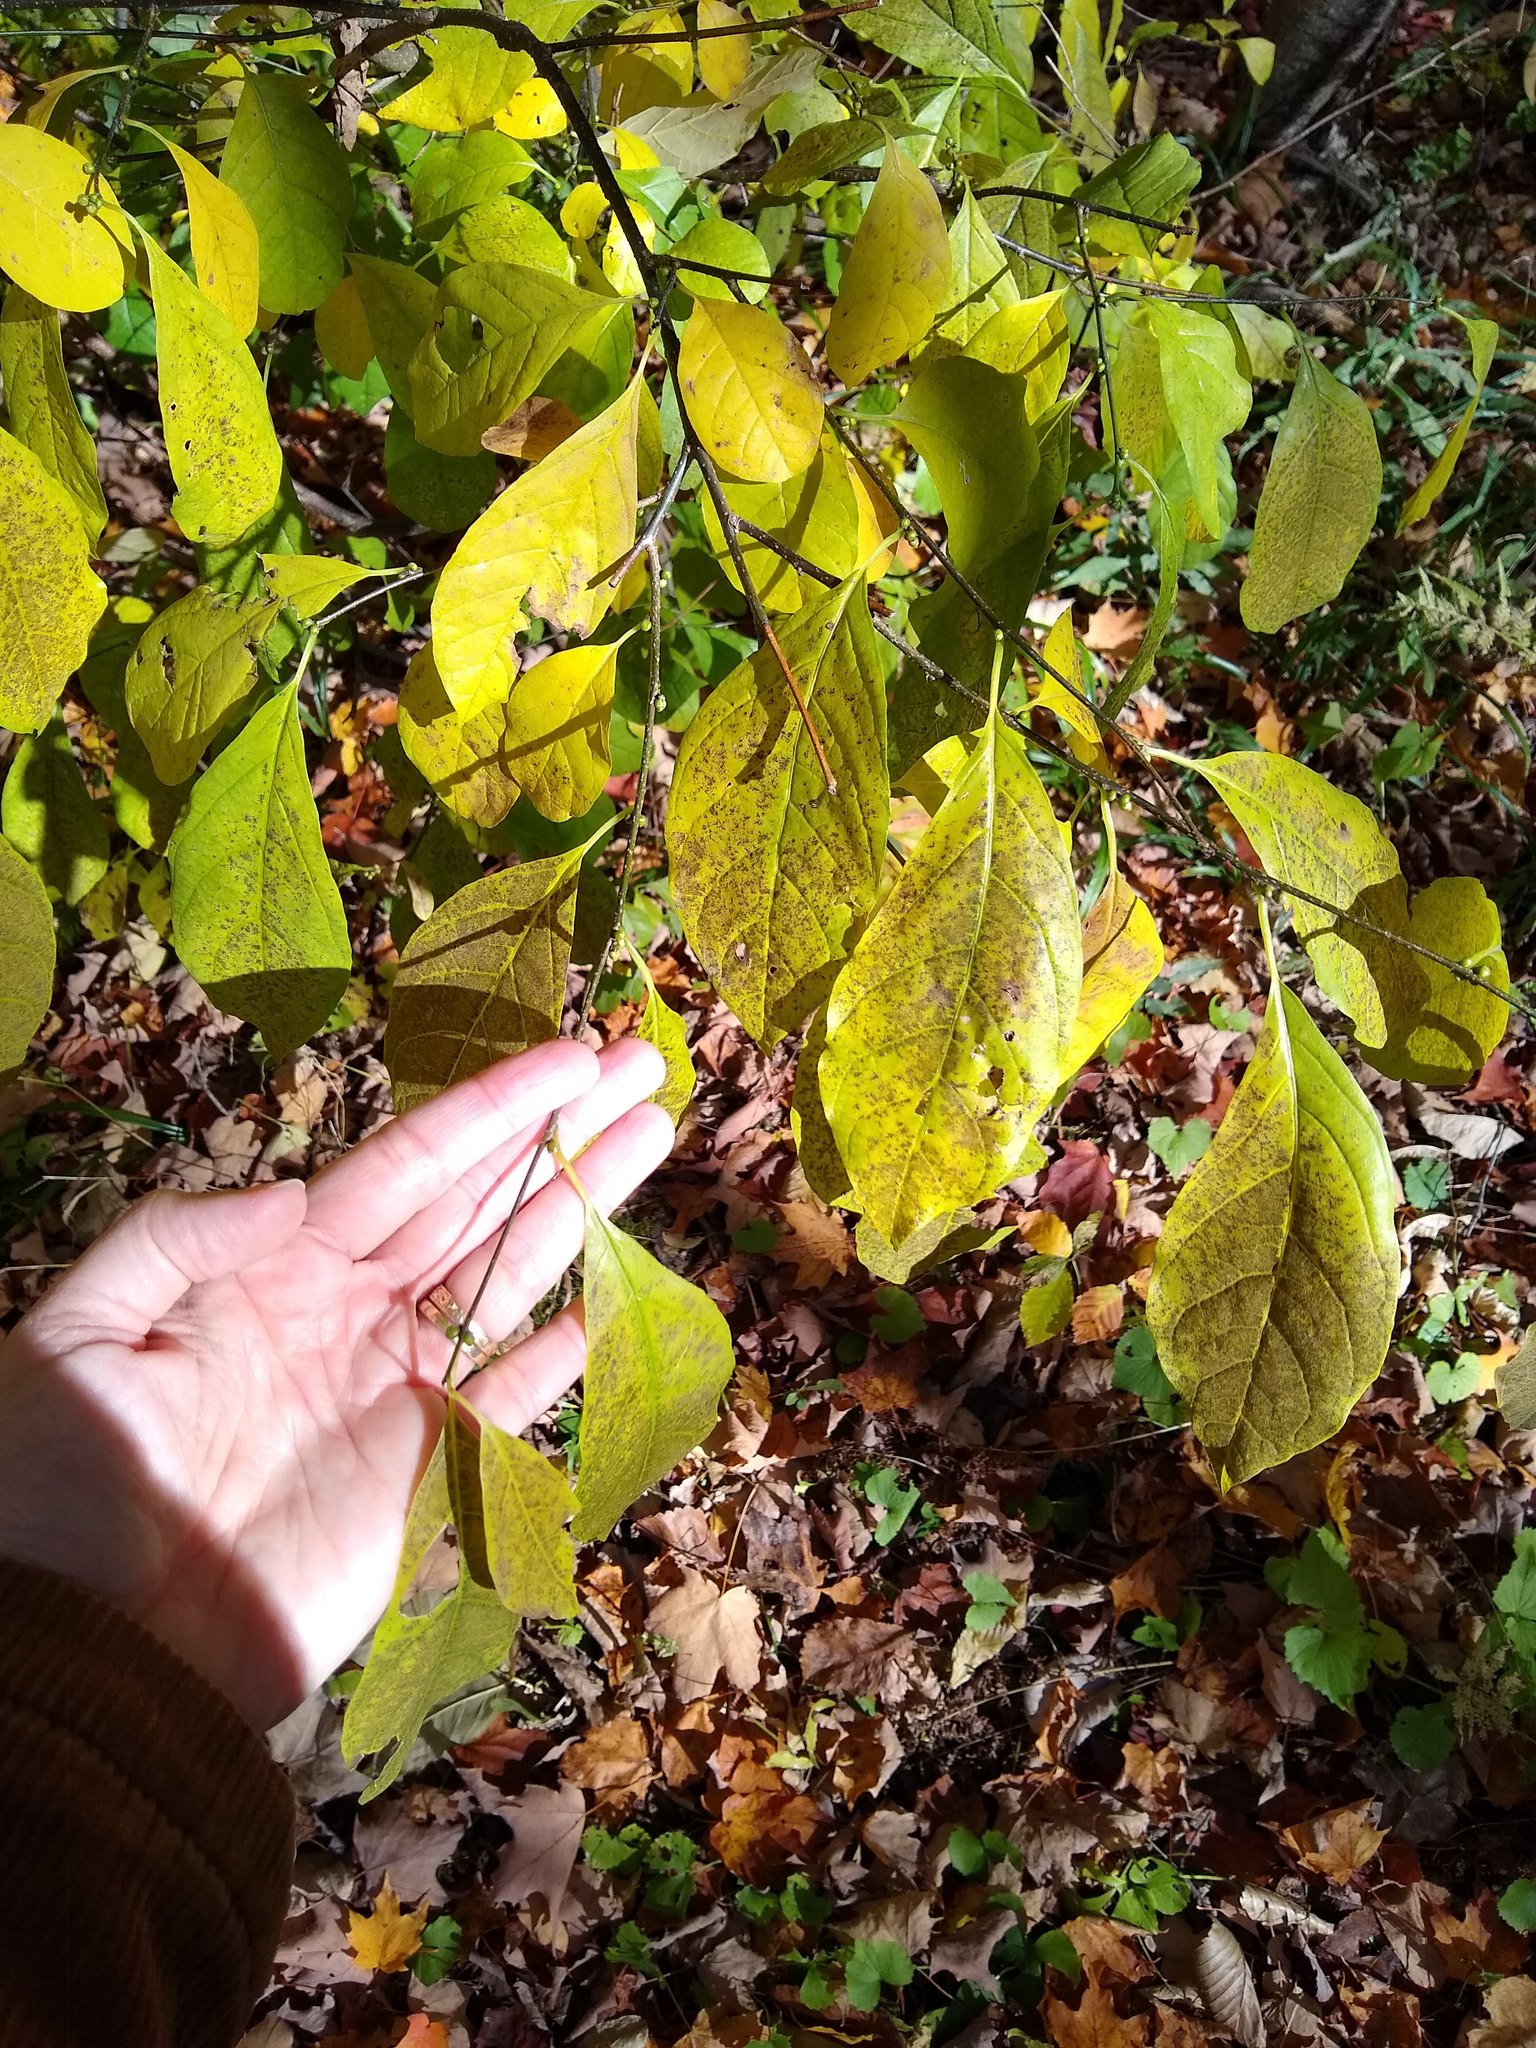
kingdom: Plantae
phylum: Tracheophyta
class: Magnoliopsida
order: Laurales
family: Lauraceae
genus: Lindera
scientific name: Lindera benzoin
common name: Spicebush
